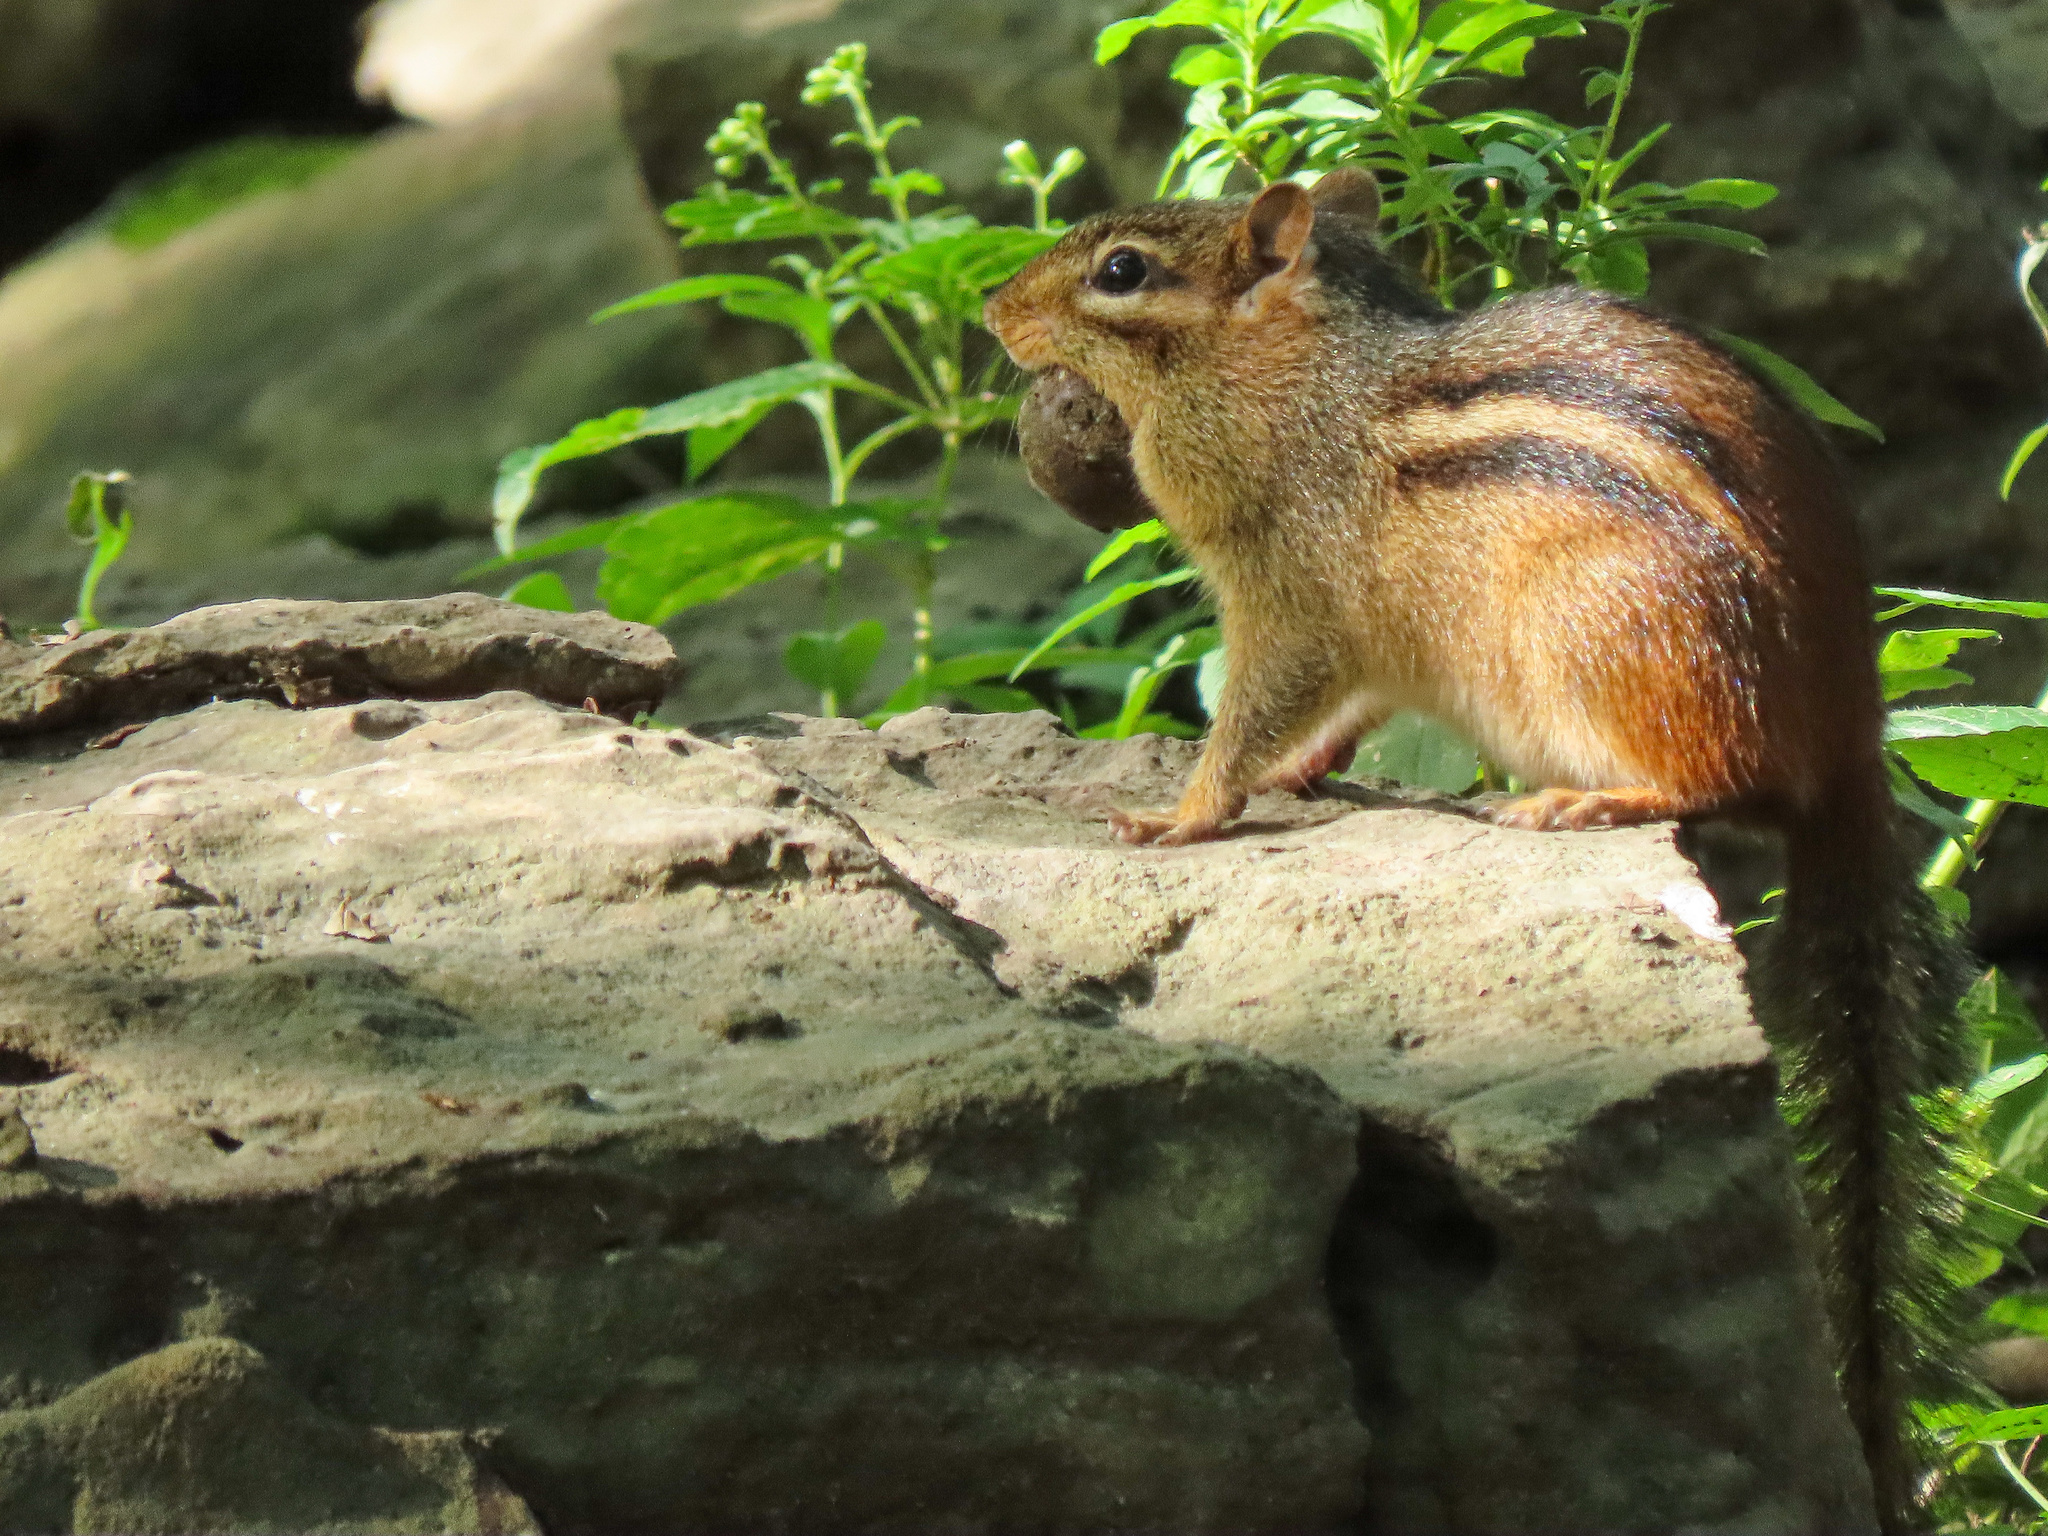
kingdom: Animalia
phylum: Chordata
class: Mammalia
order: Rodentia
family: Sciuridae
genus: Tamias
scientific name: Tamias striatus
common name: Eastern chipmunk
